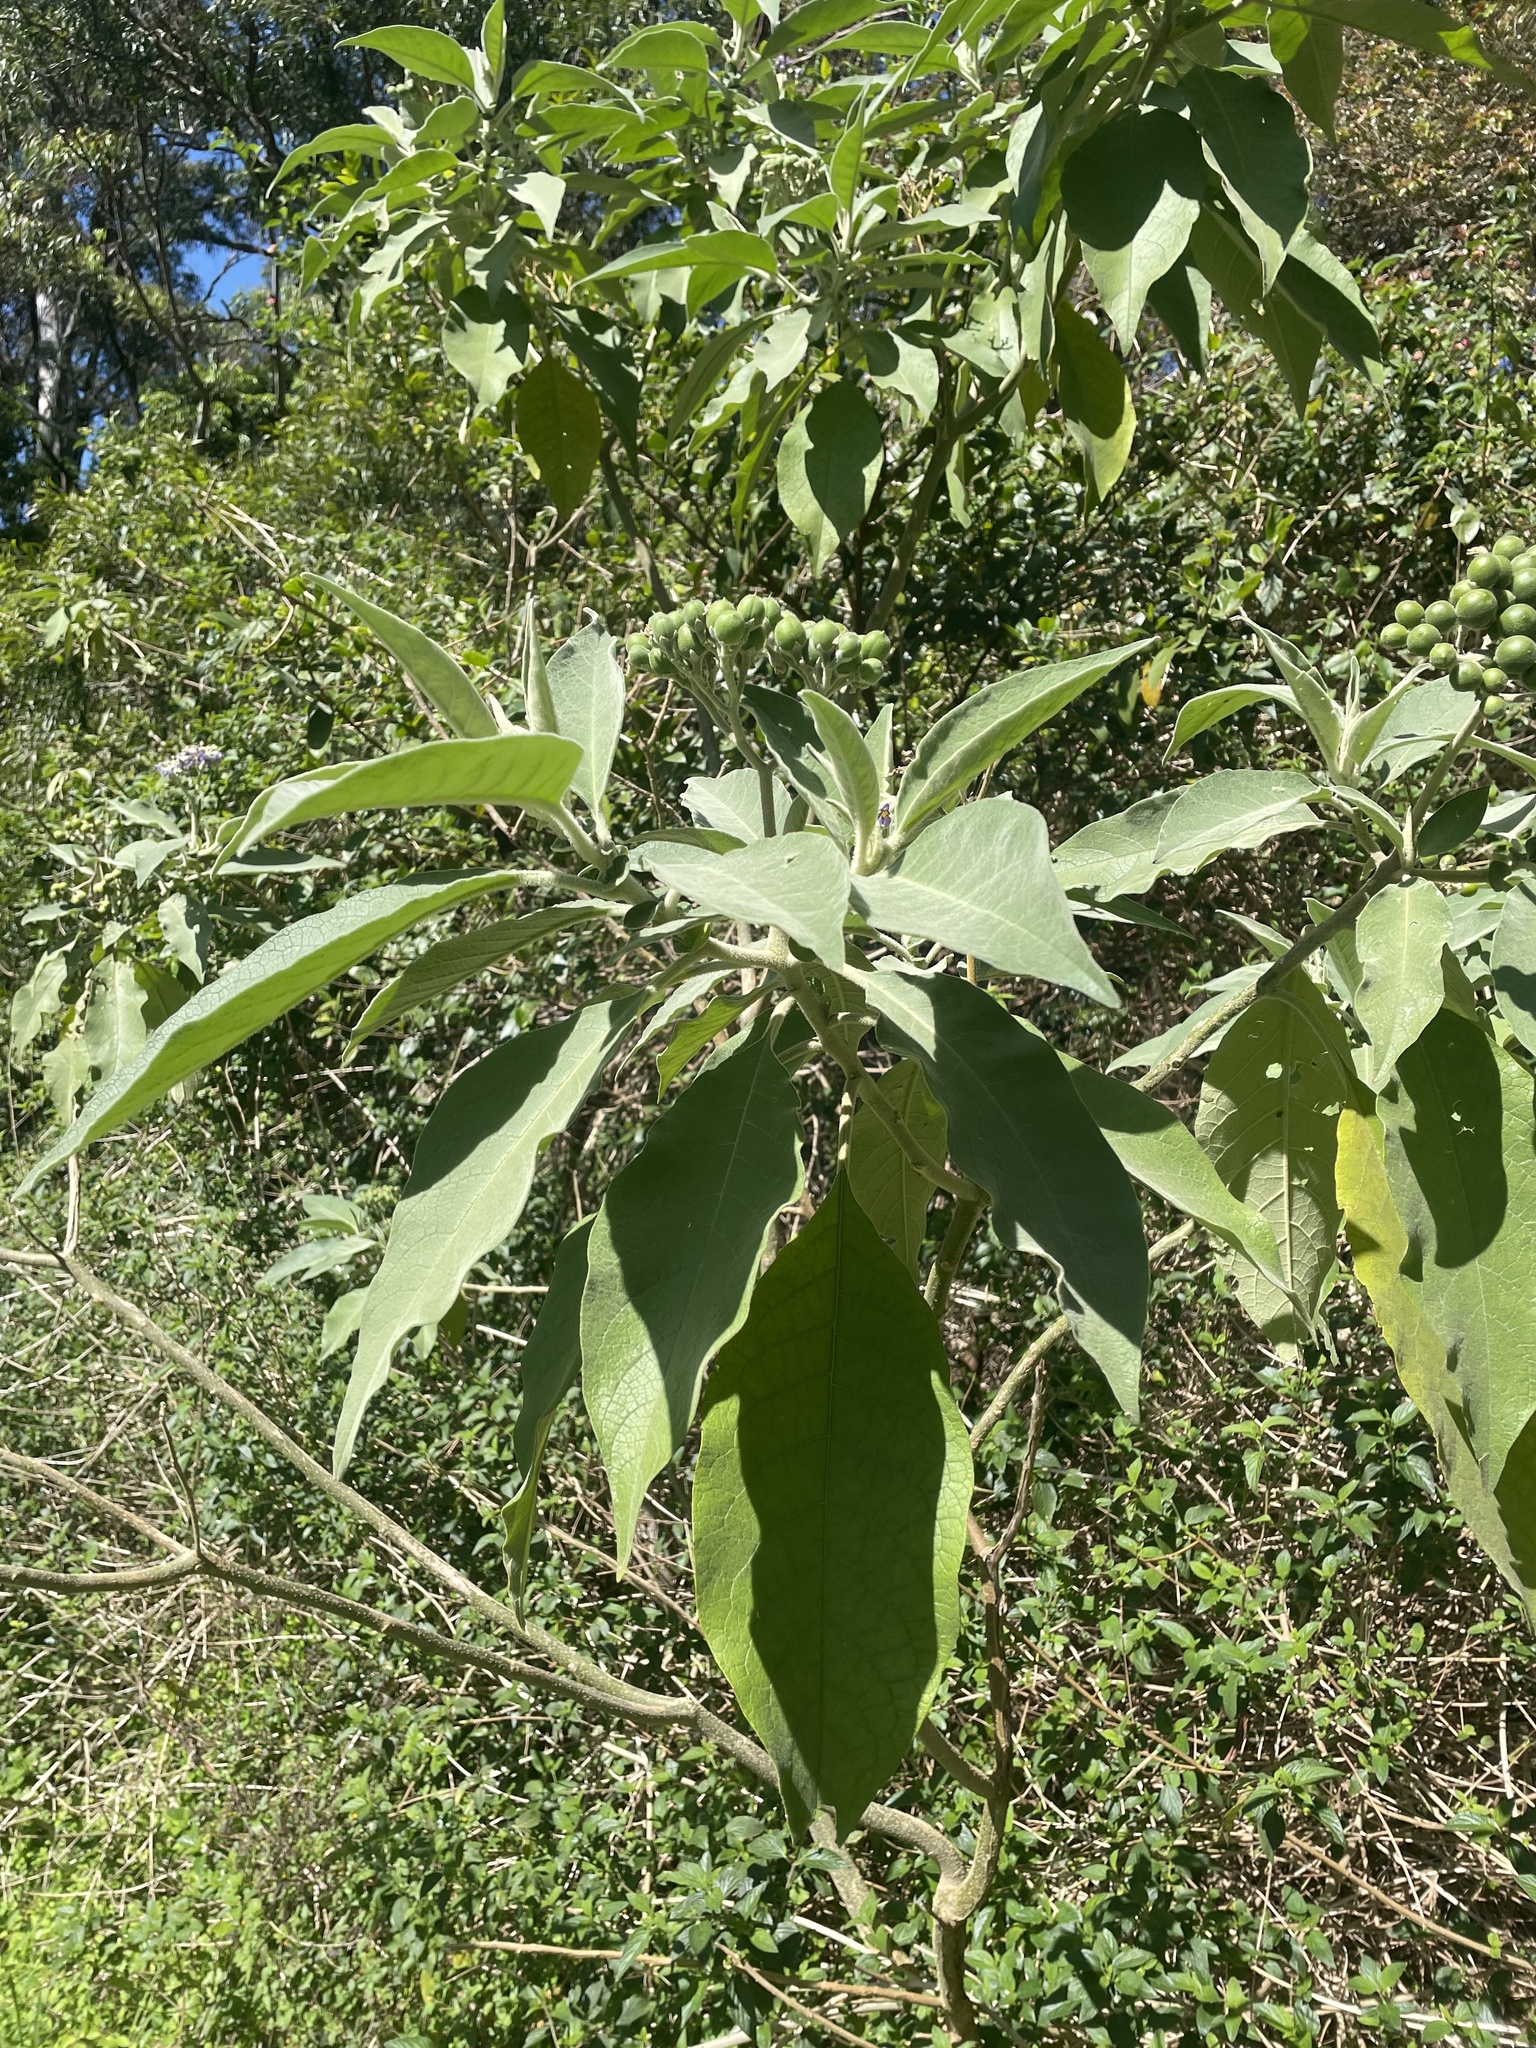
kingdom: Plantae
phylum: Tracheophyta
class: Magnoliopsida
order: Solanales
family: Solanaceae
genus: Solanum
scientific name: Solanum mauritianum
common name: Earleaf nightshade
